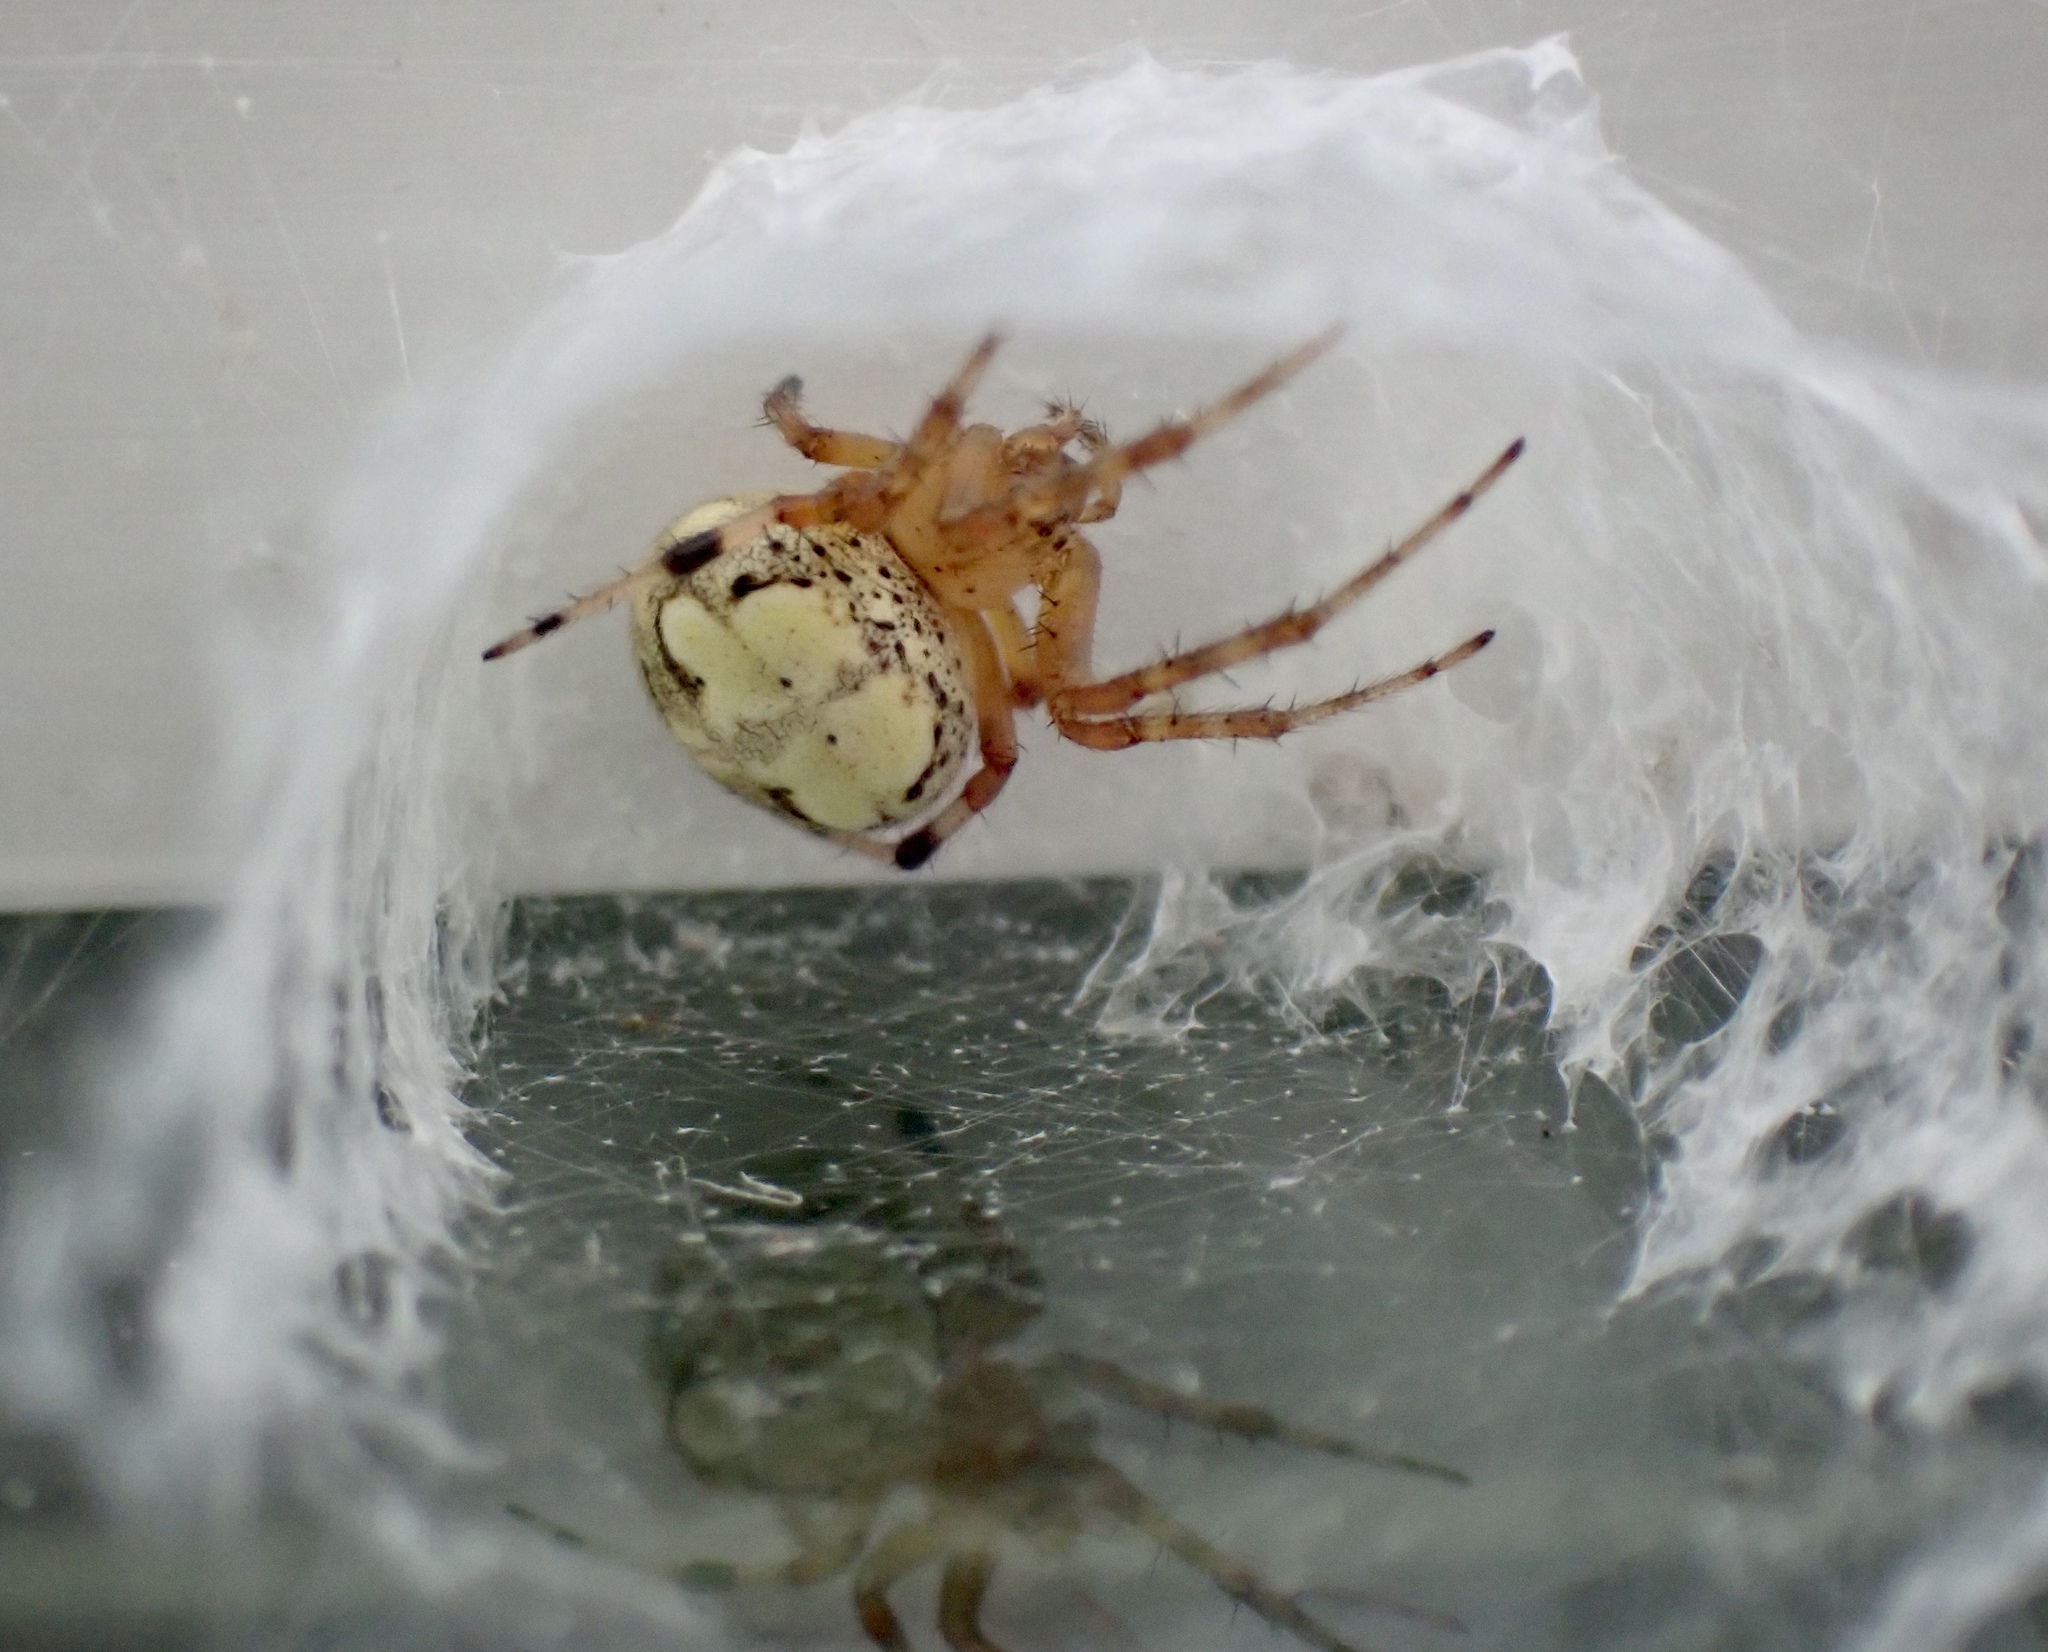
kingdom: Animalia
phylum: Arthropoda
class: Arachnida
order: Araneae
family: Araneidae
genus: Araneus
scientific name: Araneus pegnia
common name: Orb weavers
